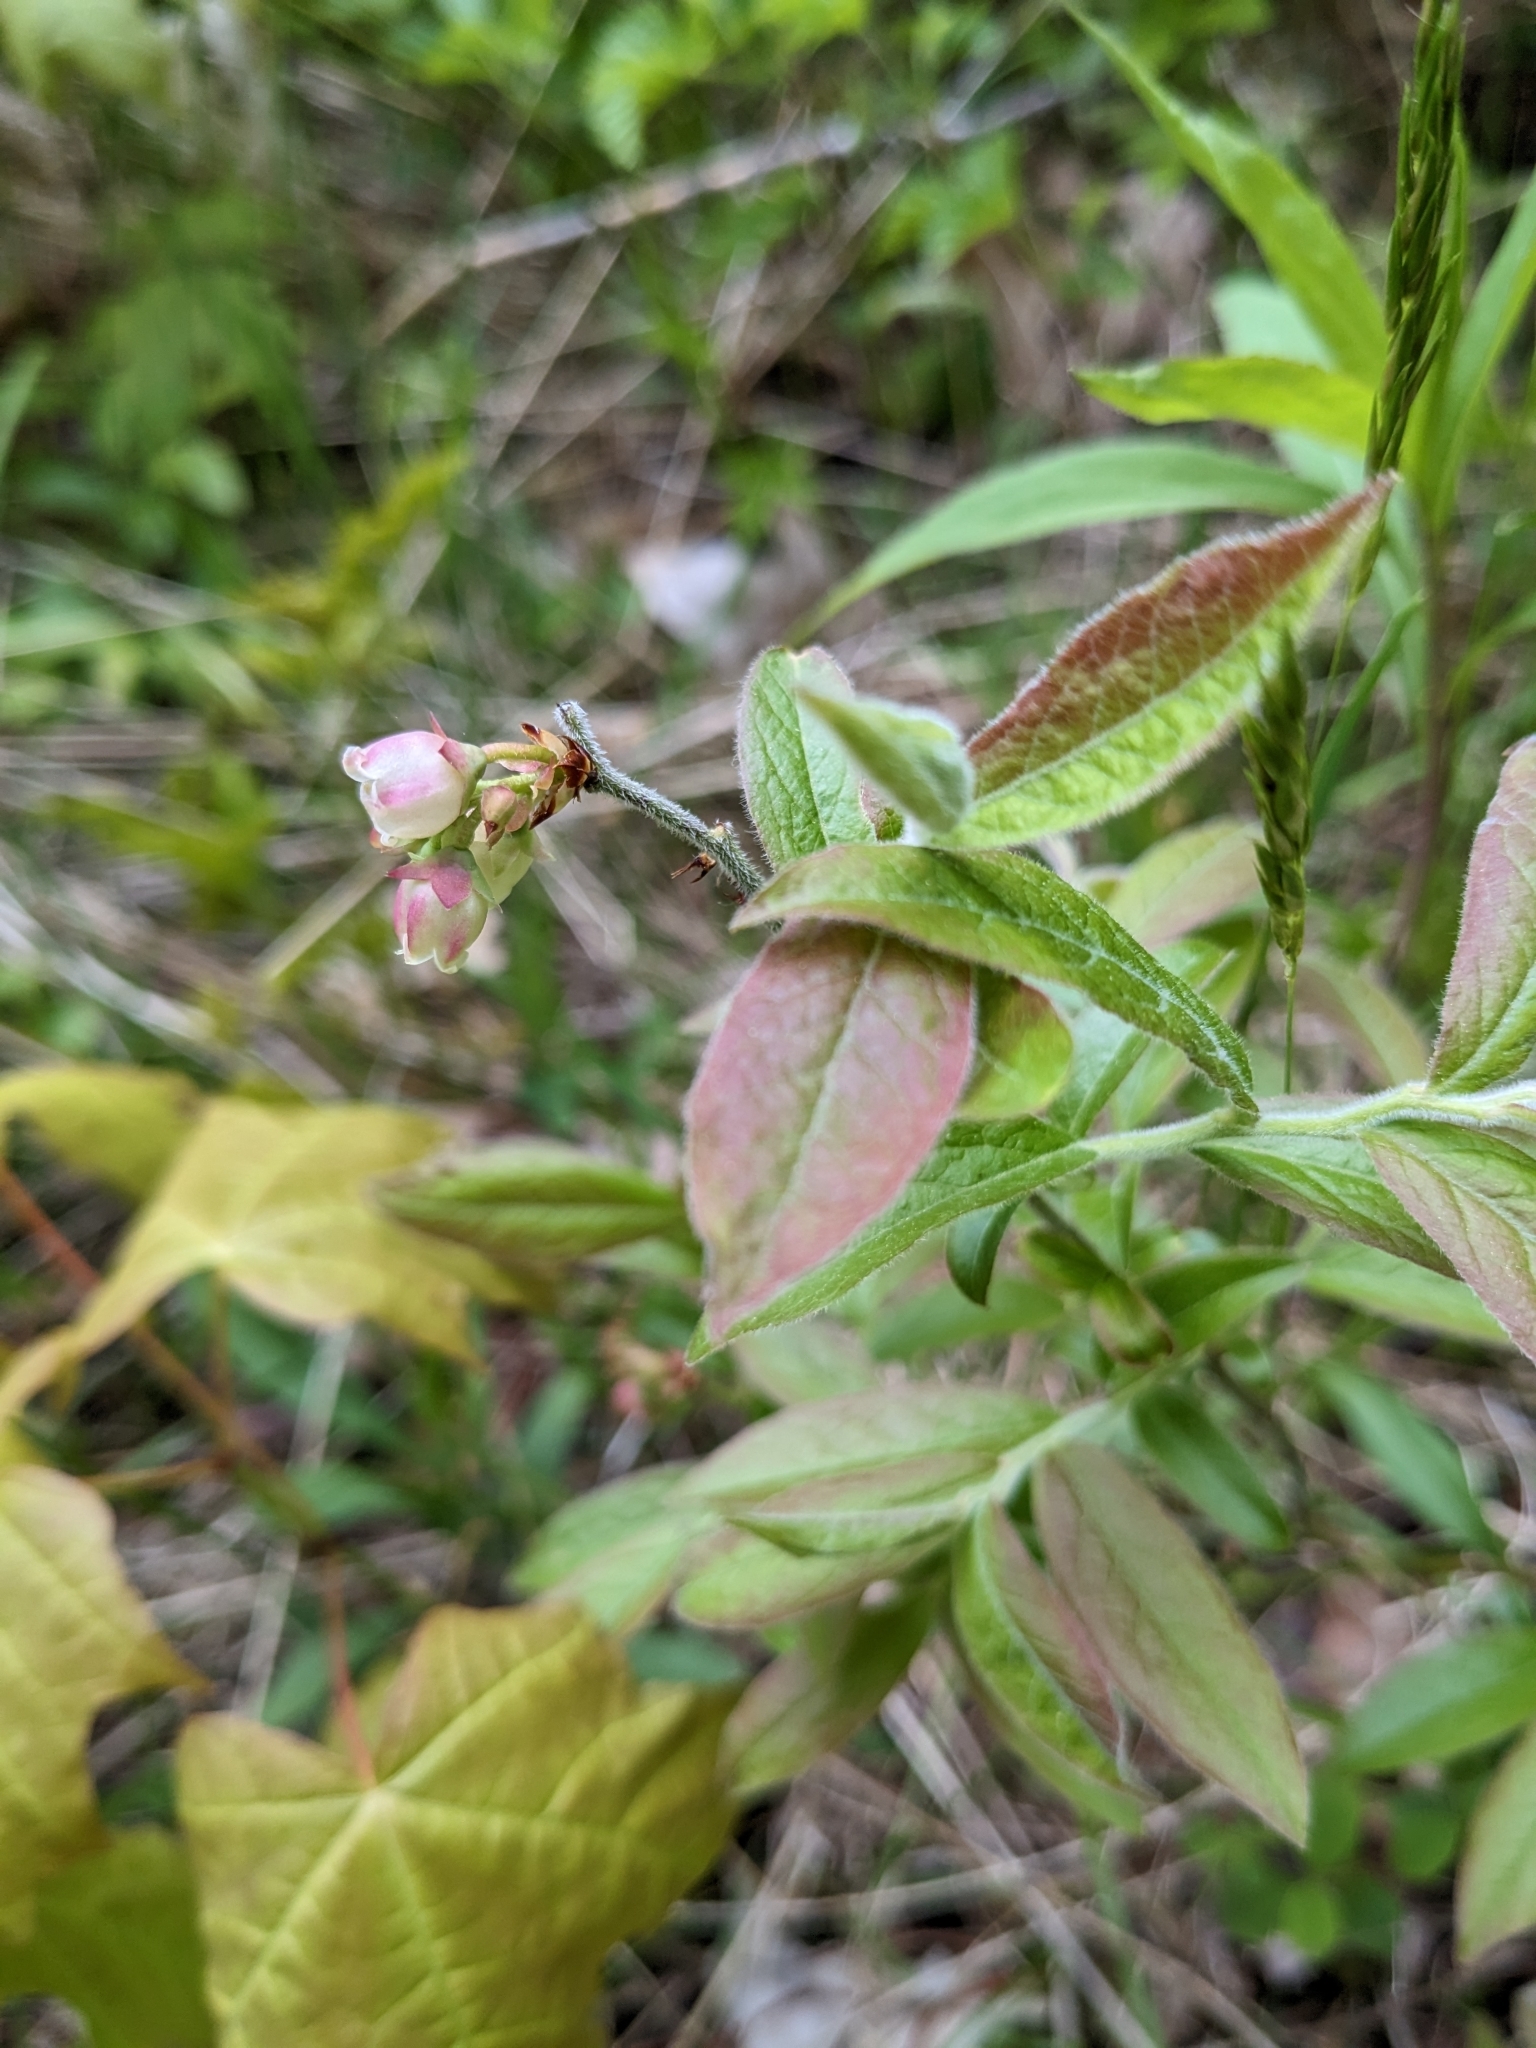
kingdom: Plantae
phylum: Tracheophyta
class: Magnoliopsida
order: Ericales
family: Ericaceae
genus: Vaccinium
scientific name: Vaccinium myrtilloides
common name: Canada blueberry
